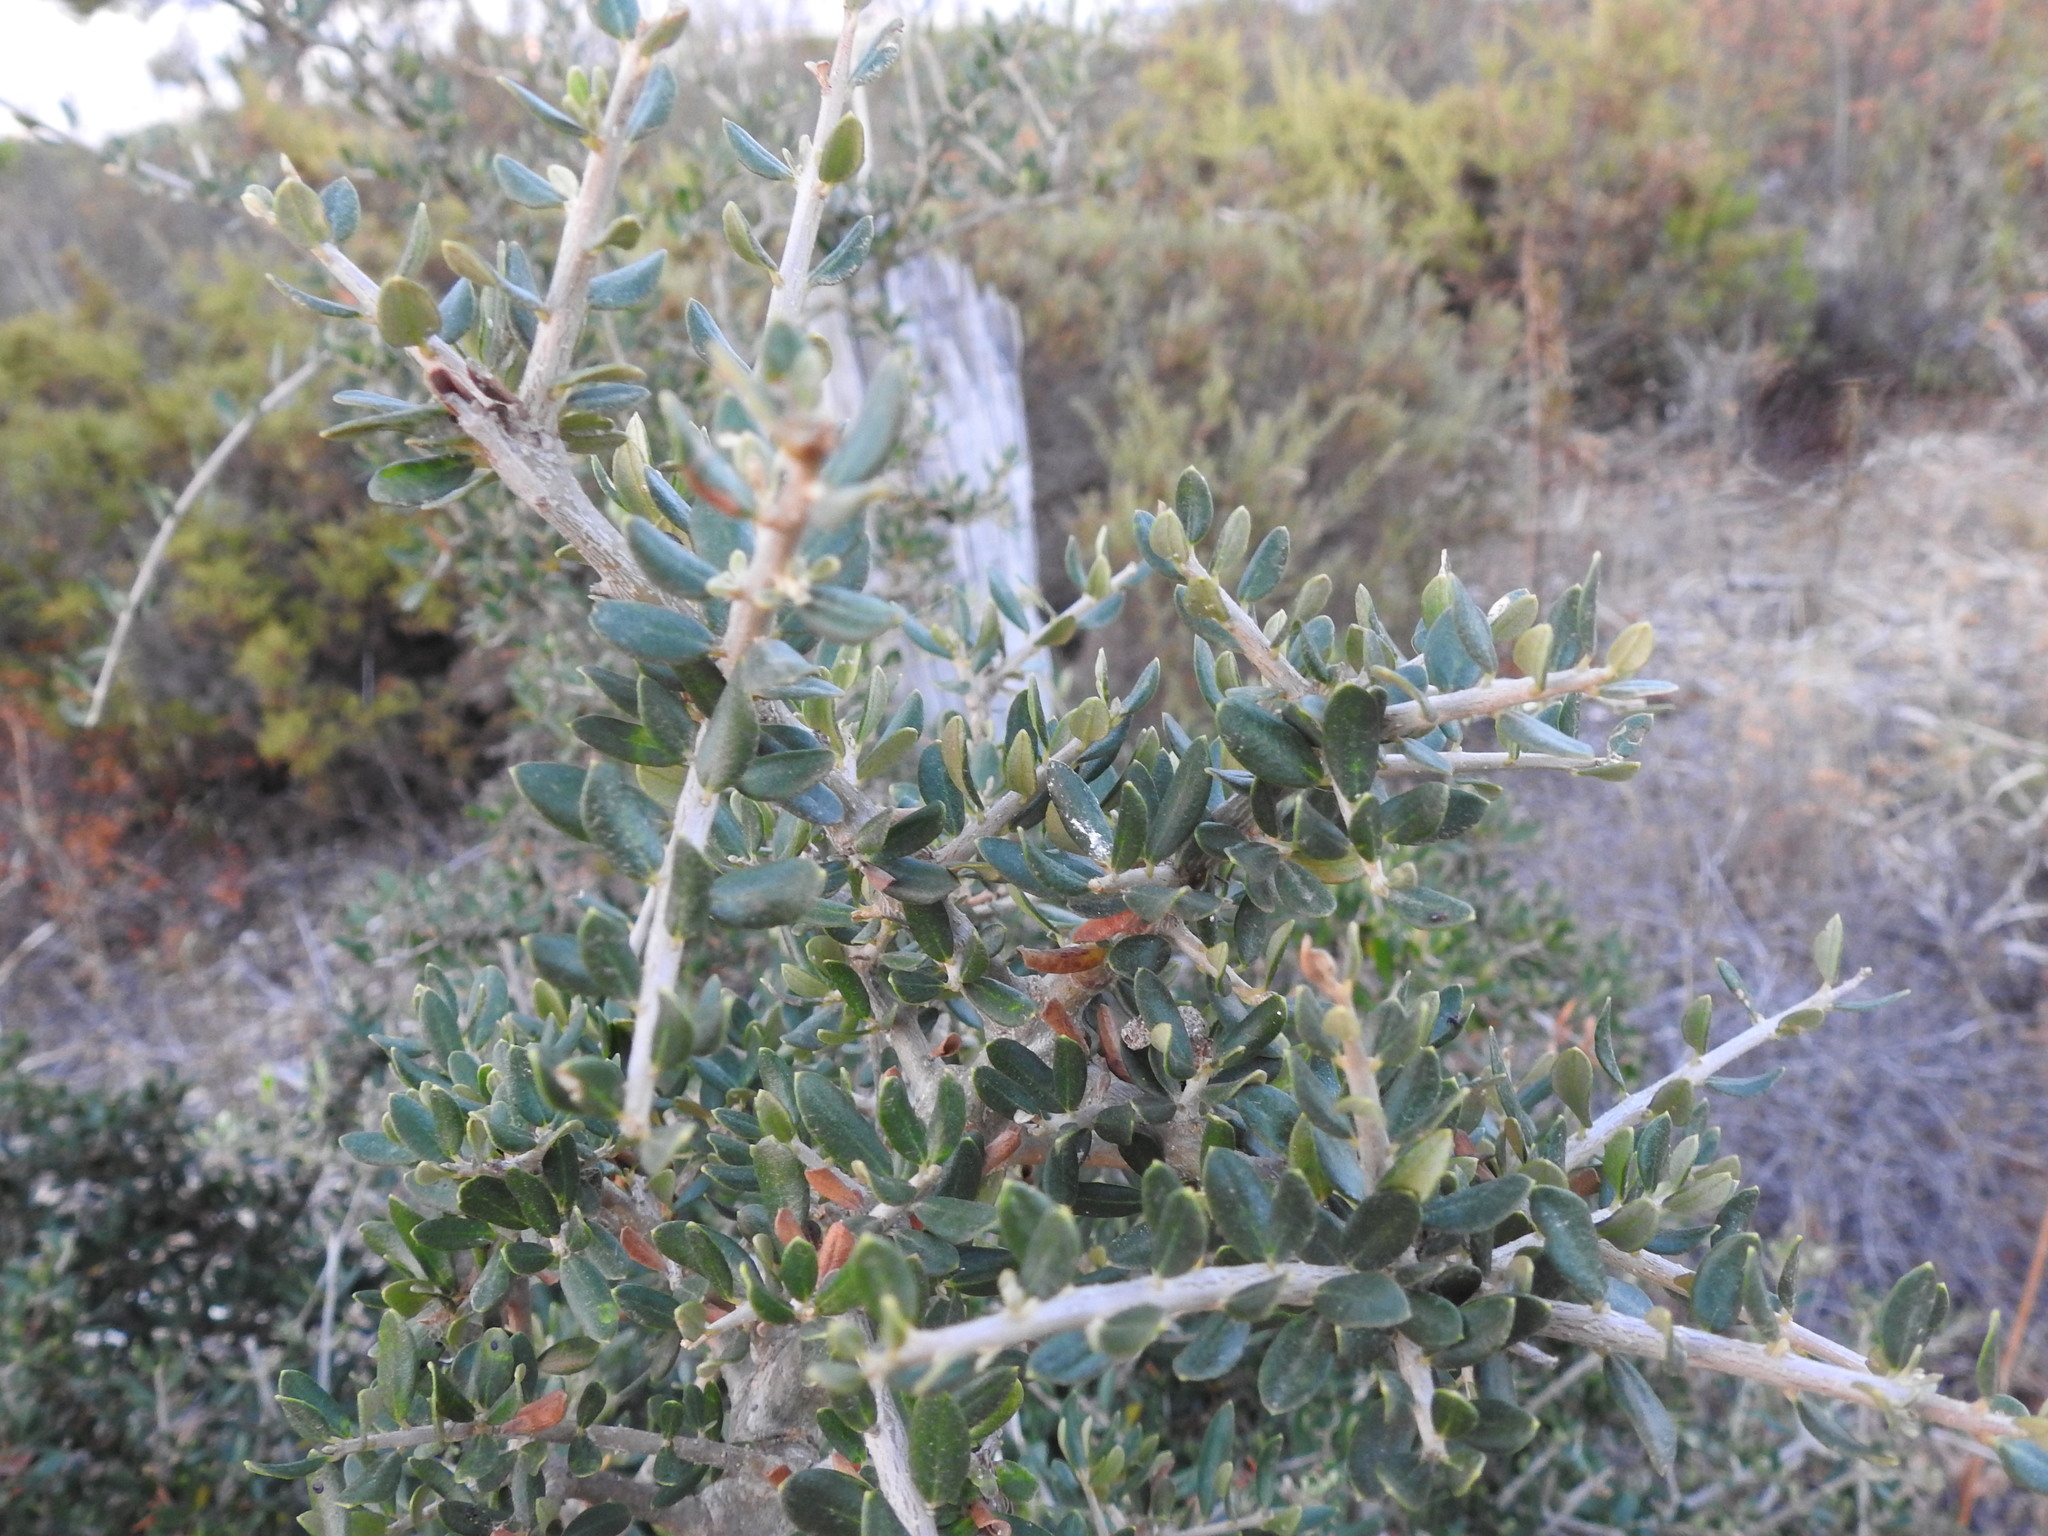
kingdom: Plantae
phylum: Tracheophyta
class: Magnoliopsida
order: Lamiales
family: Oleaceae
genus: Olea
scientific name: Olea europaea
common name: Olive
